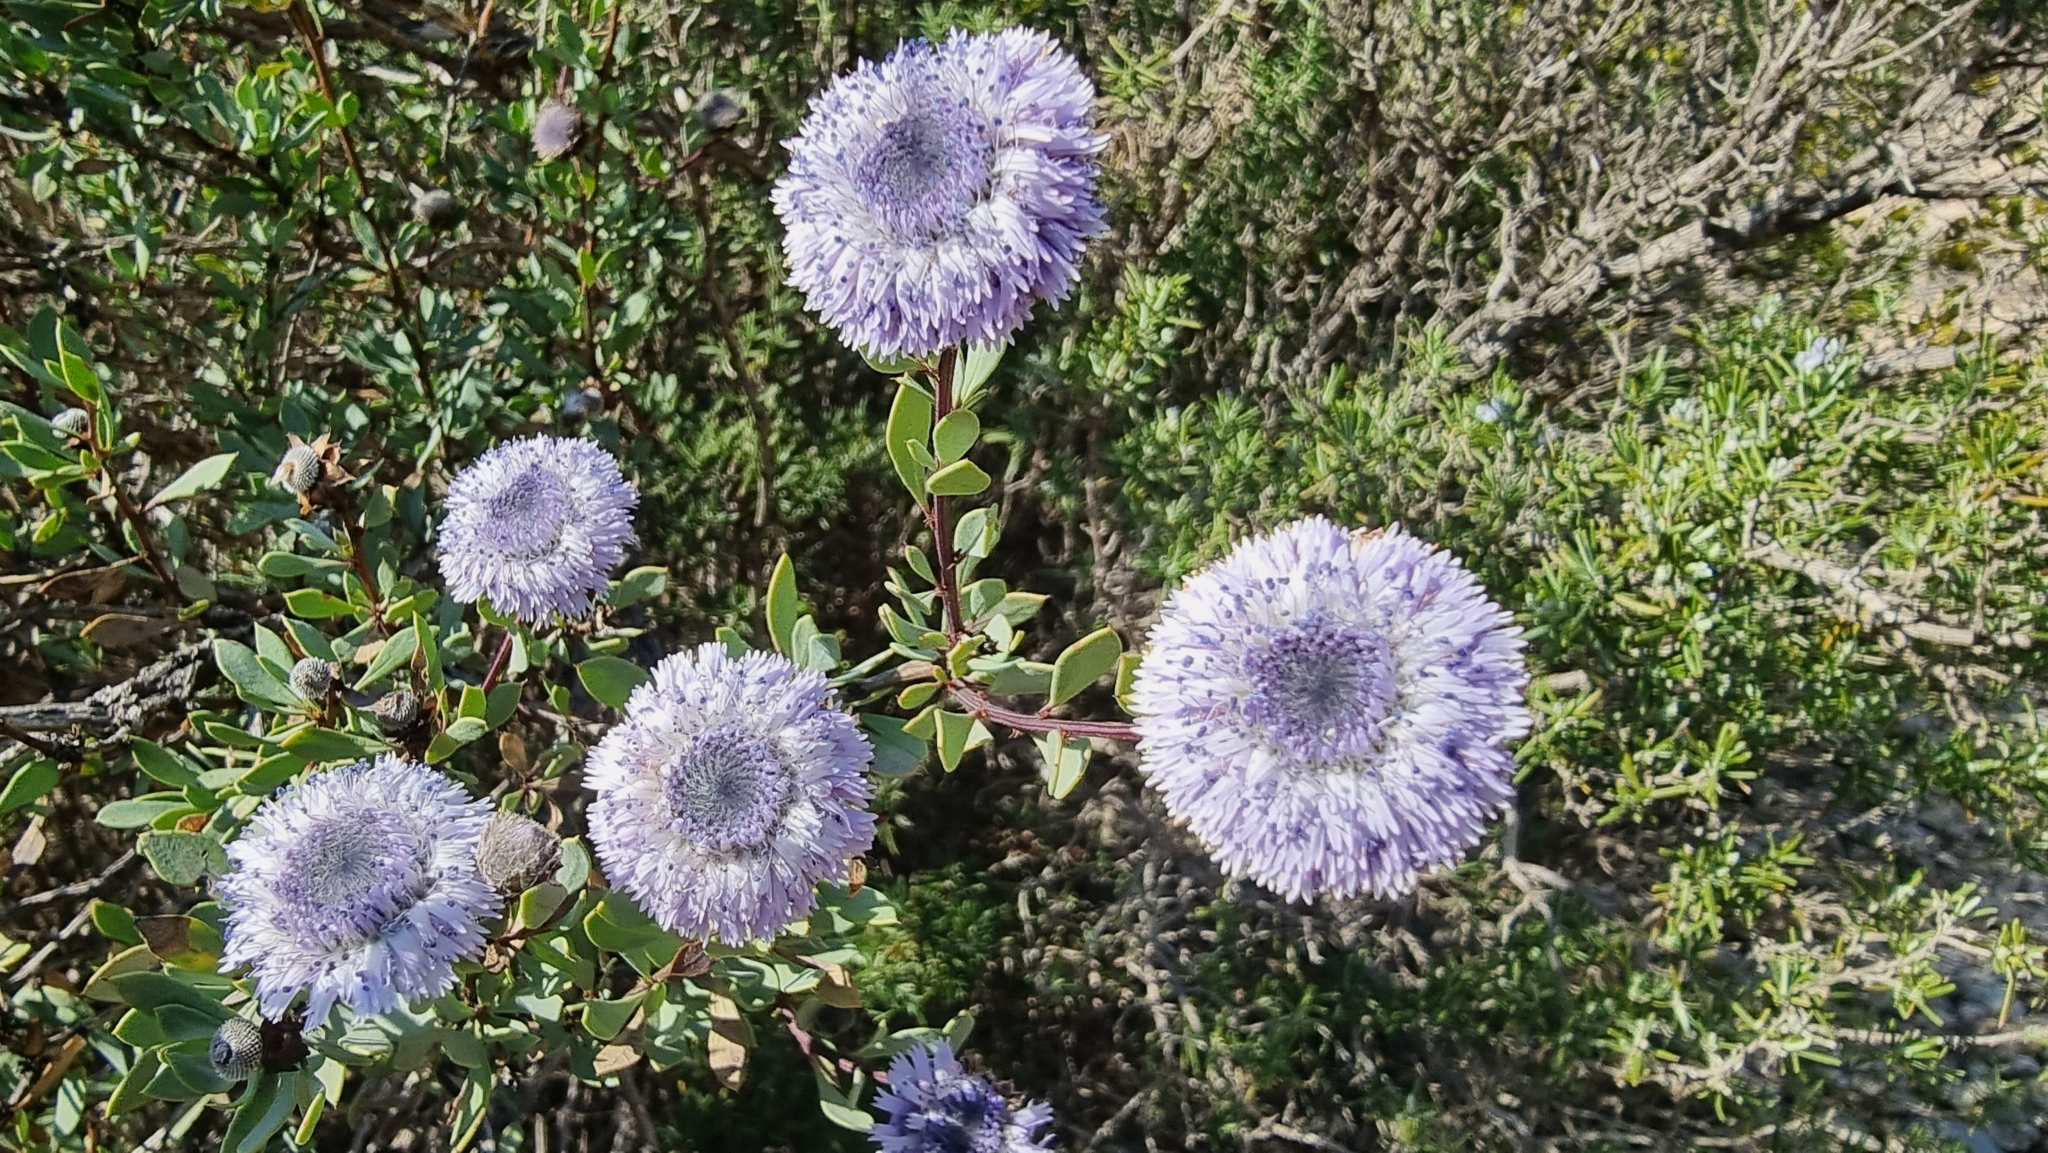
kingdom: Plantae
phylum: Tracheophyta
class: Magnoliopsida
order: Lamiales
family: Plantaginaceae
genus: Globularia
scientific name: Globularia alypum
